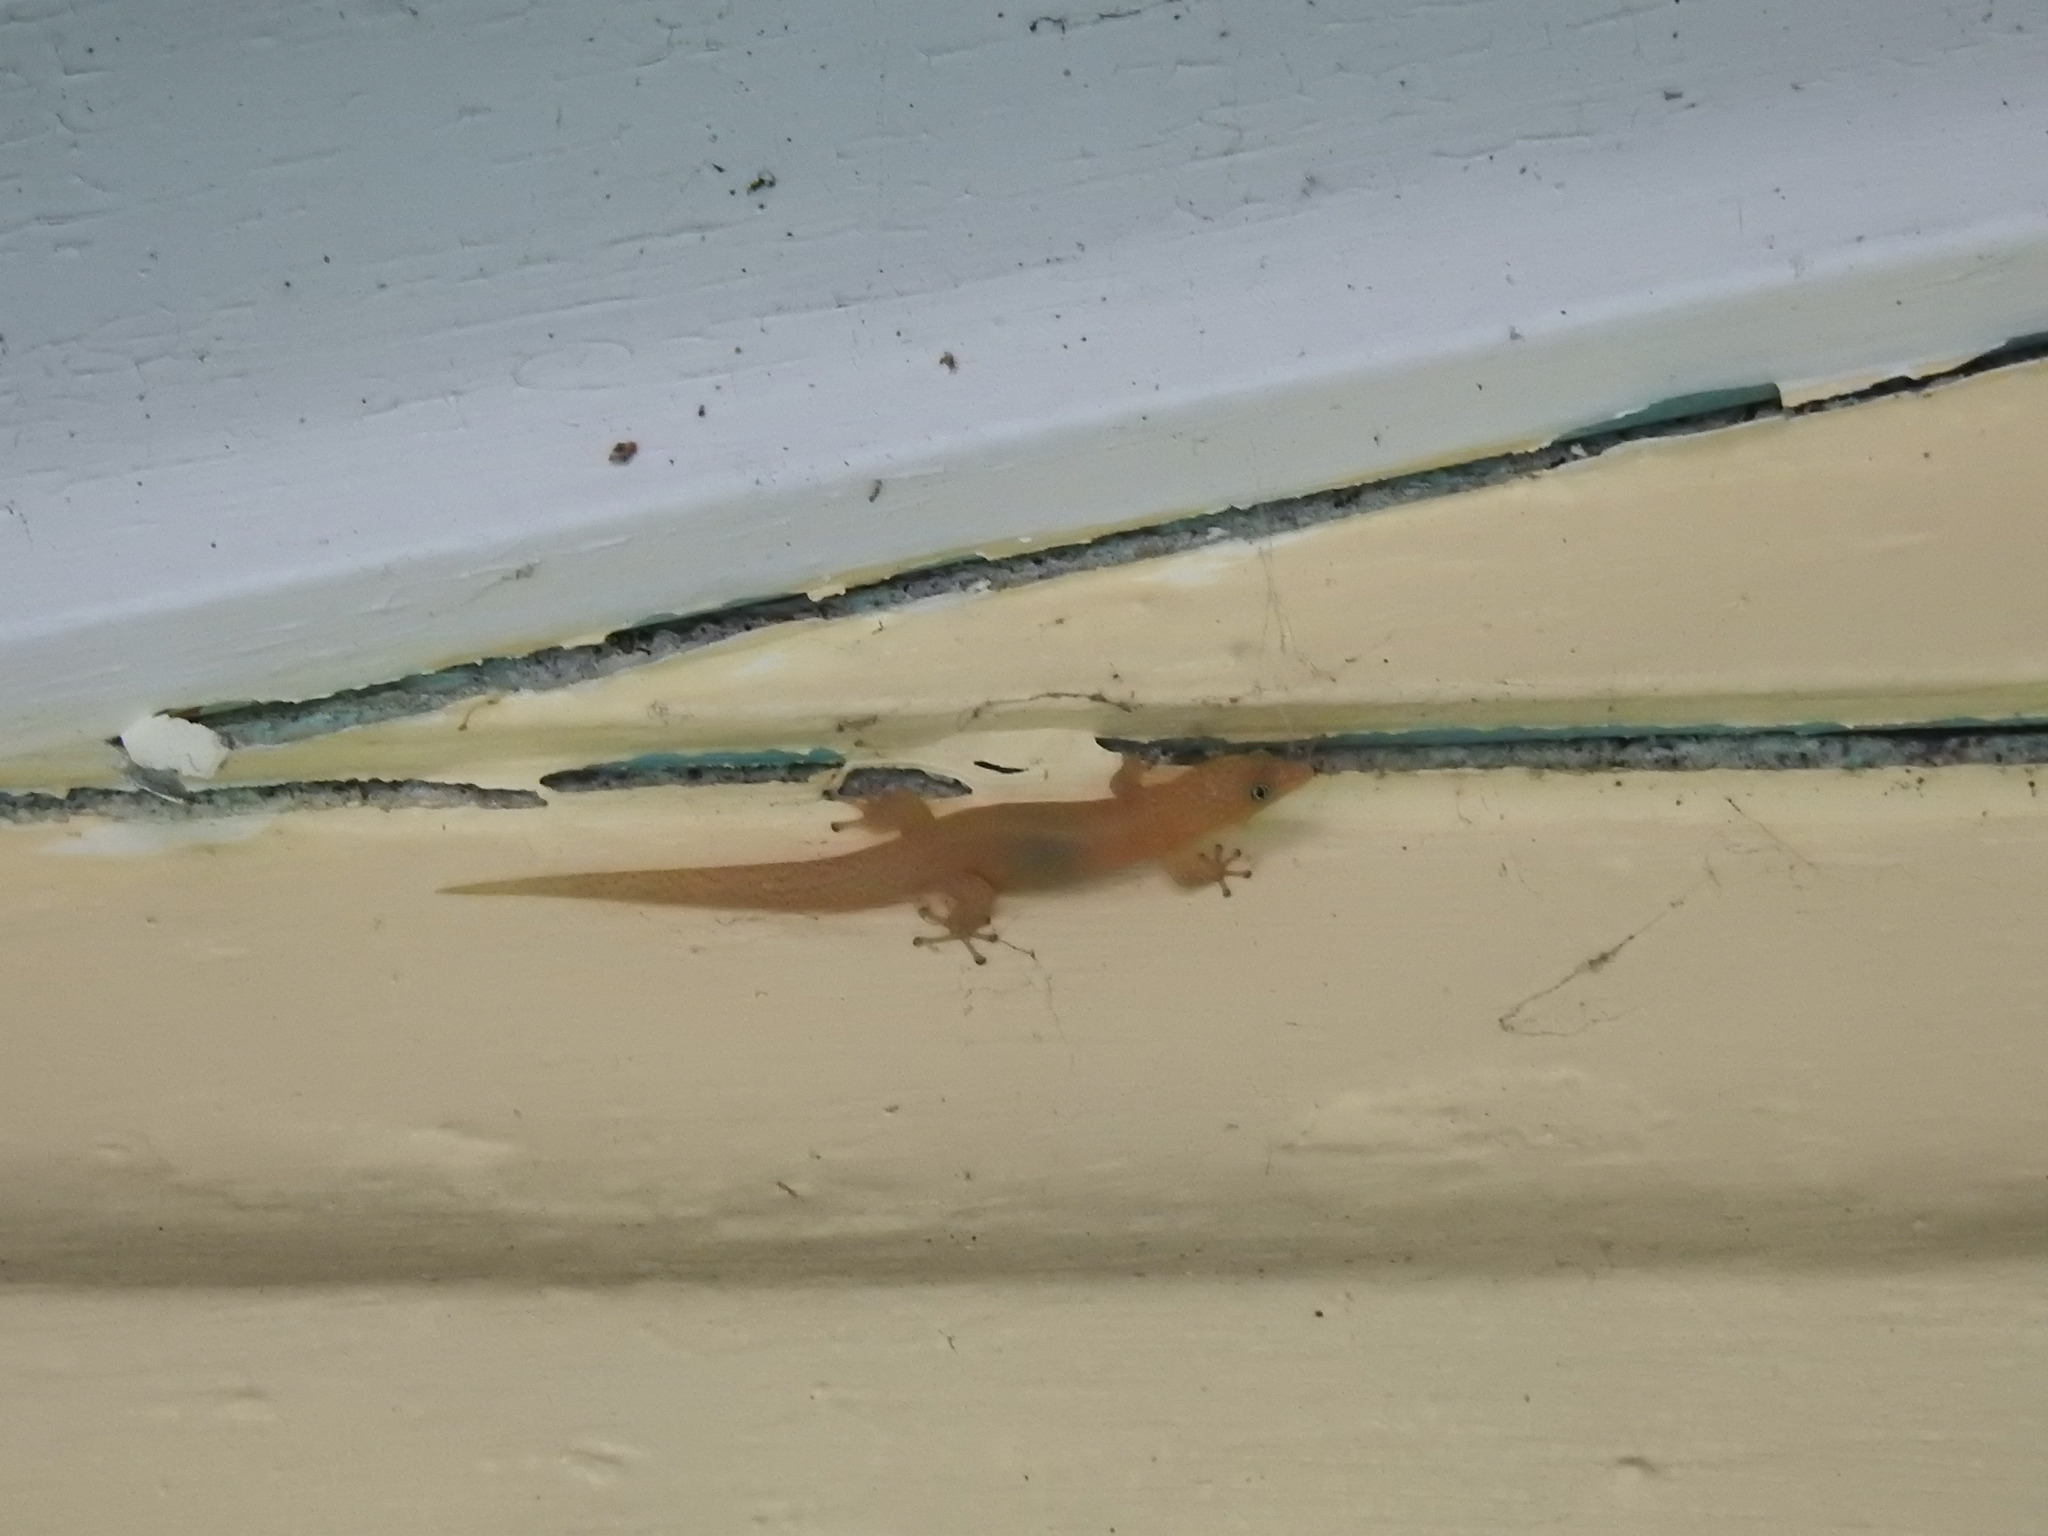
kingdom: Animalia
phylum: Chordata
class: Squamata
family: Sphaerodactylidae
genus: Sphaerodactylus
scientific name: Sphaerodactylus elegans
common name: Ashy gecko
